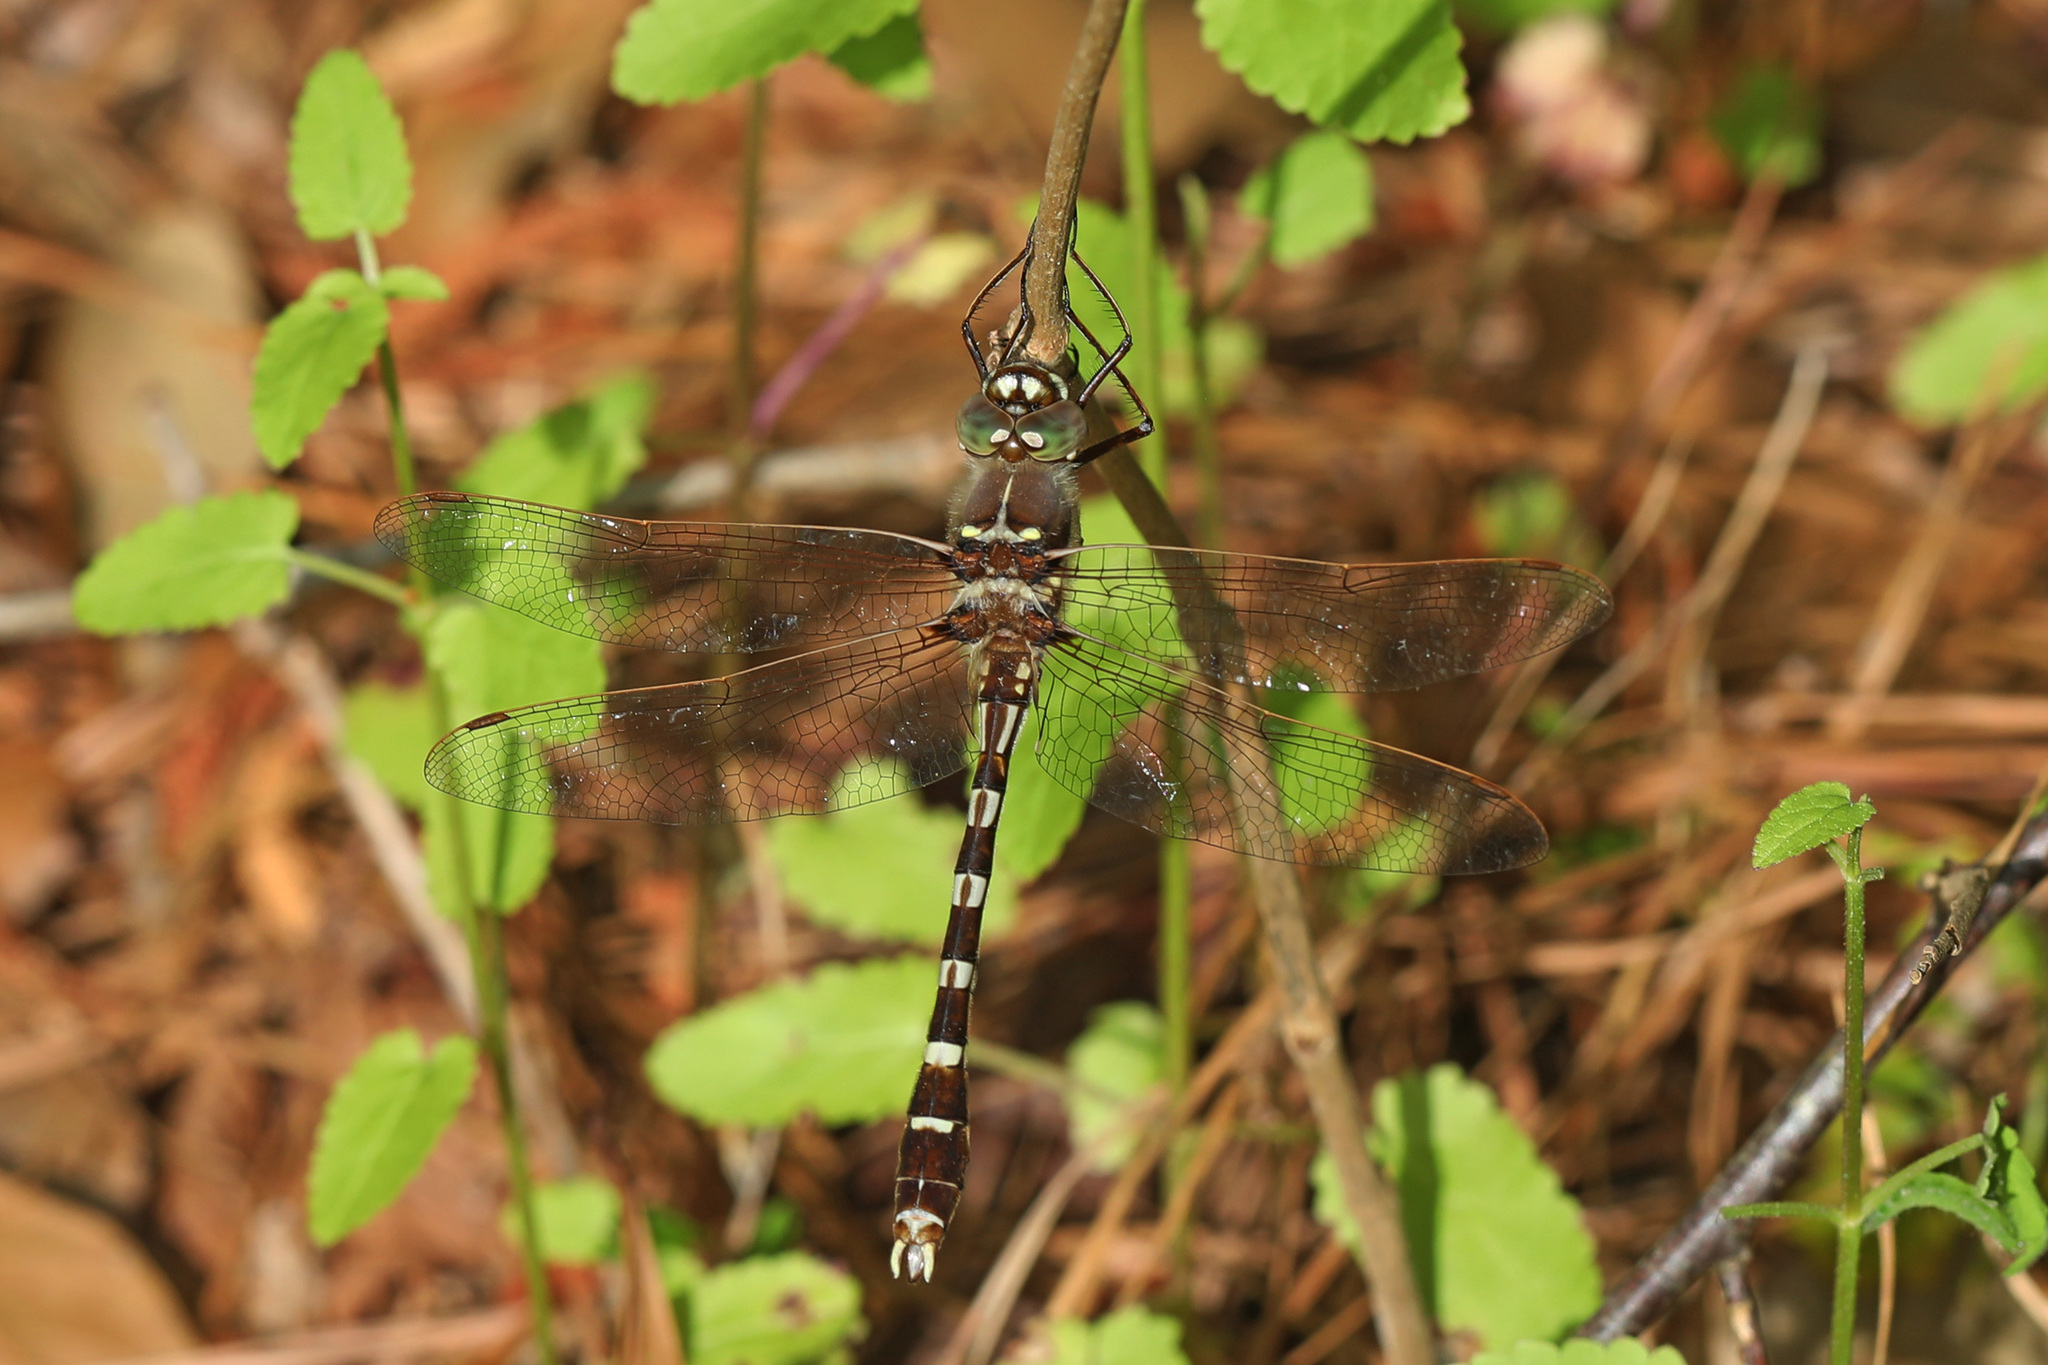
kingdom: Animalia
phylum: Arthropoda
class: Insecta
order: Odonata
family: Macromiidae
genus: Didymops
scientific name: Didymops transversa
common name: Stream cruiser
